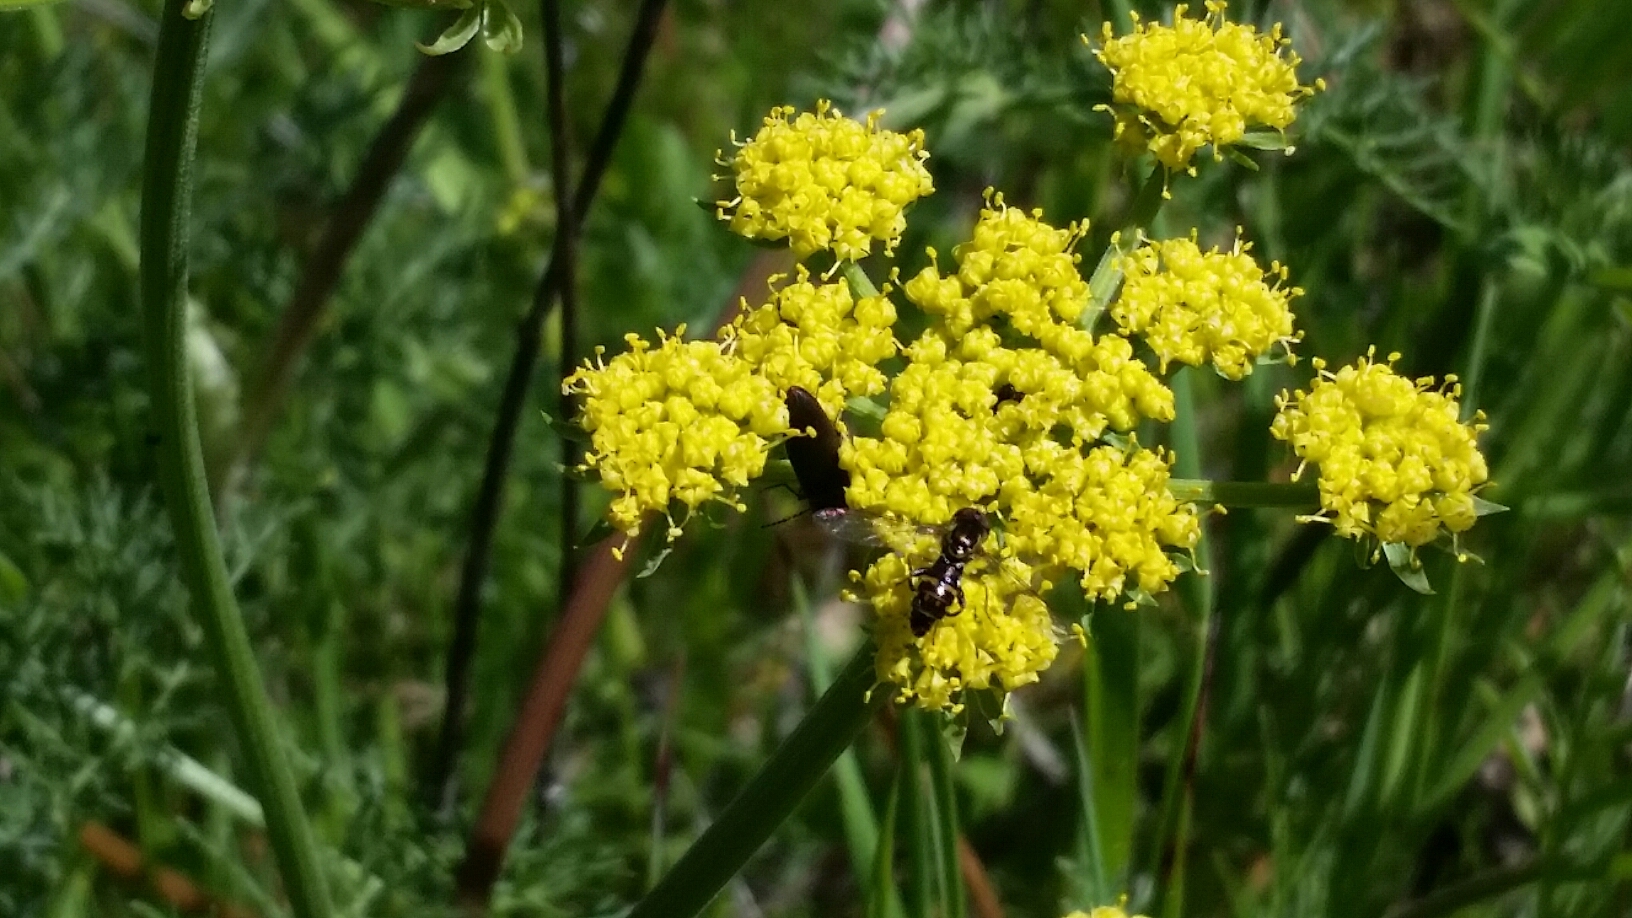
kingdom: Plantae
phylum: Tracheophyta
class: Magnoliopsida
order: Apiales
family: Apiaceae
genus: Lomatium
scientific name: Lomatium utriculatum
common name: Fine-leaf desert-parsley
